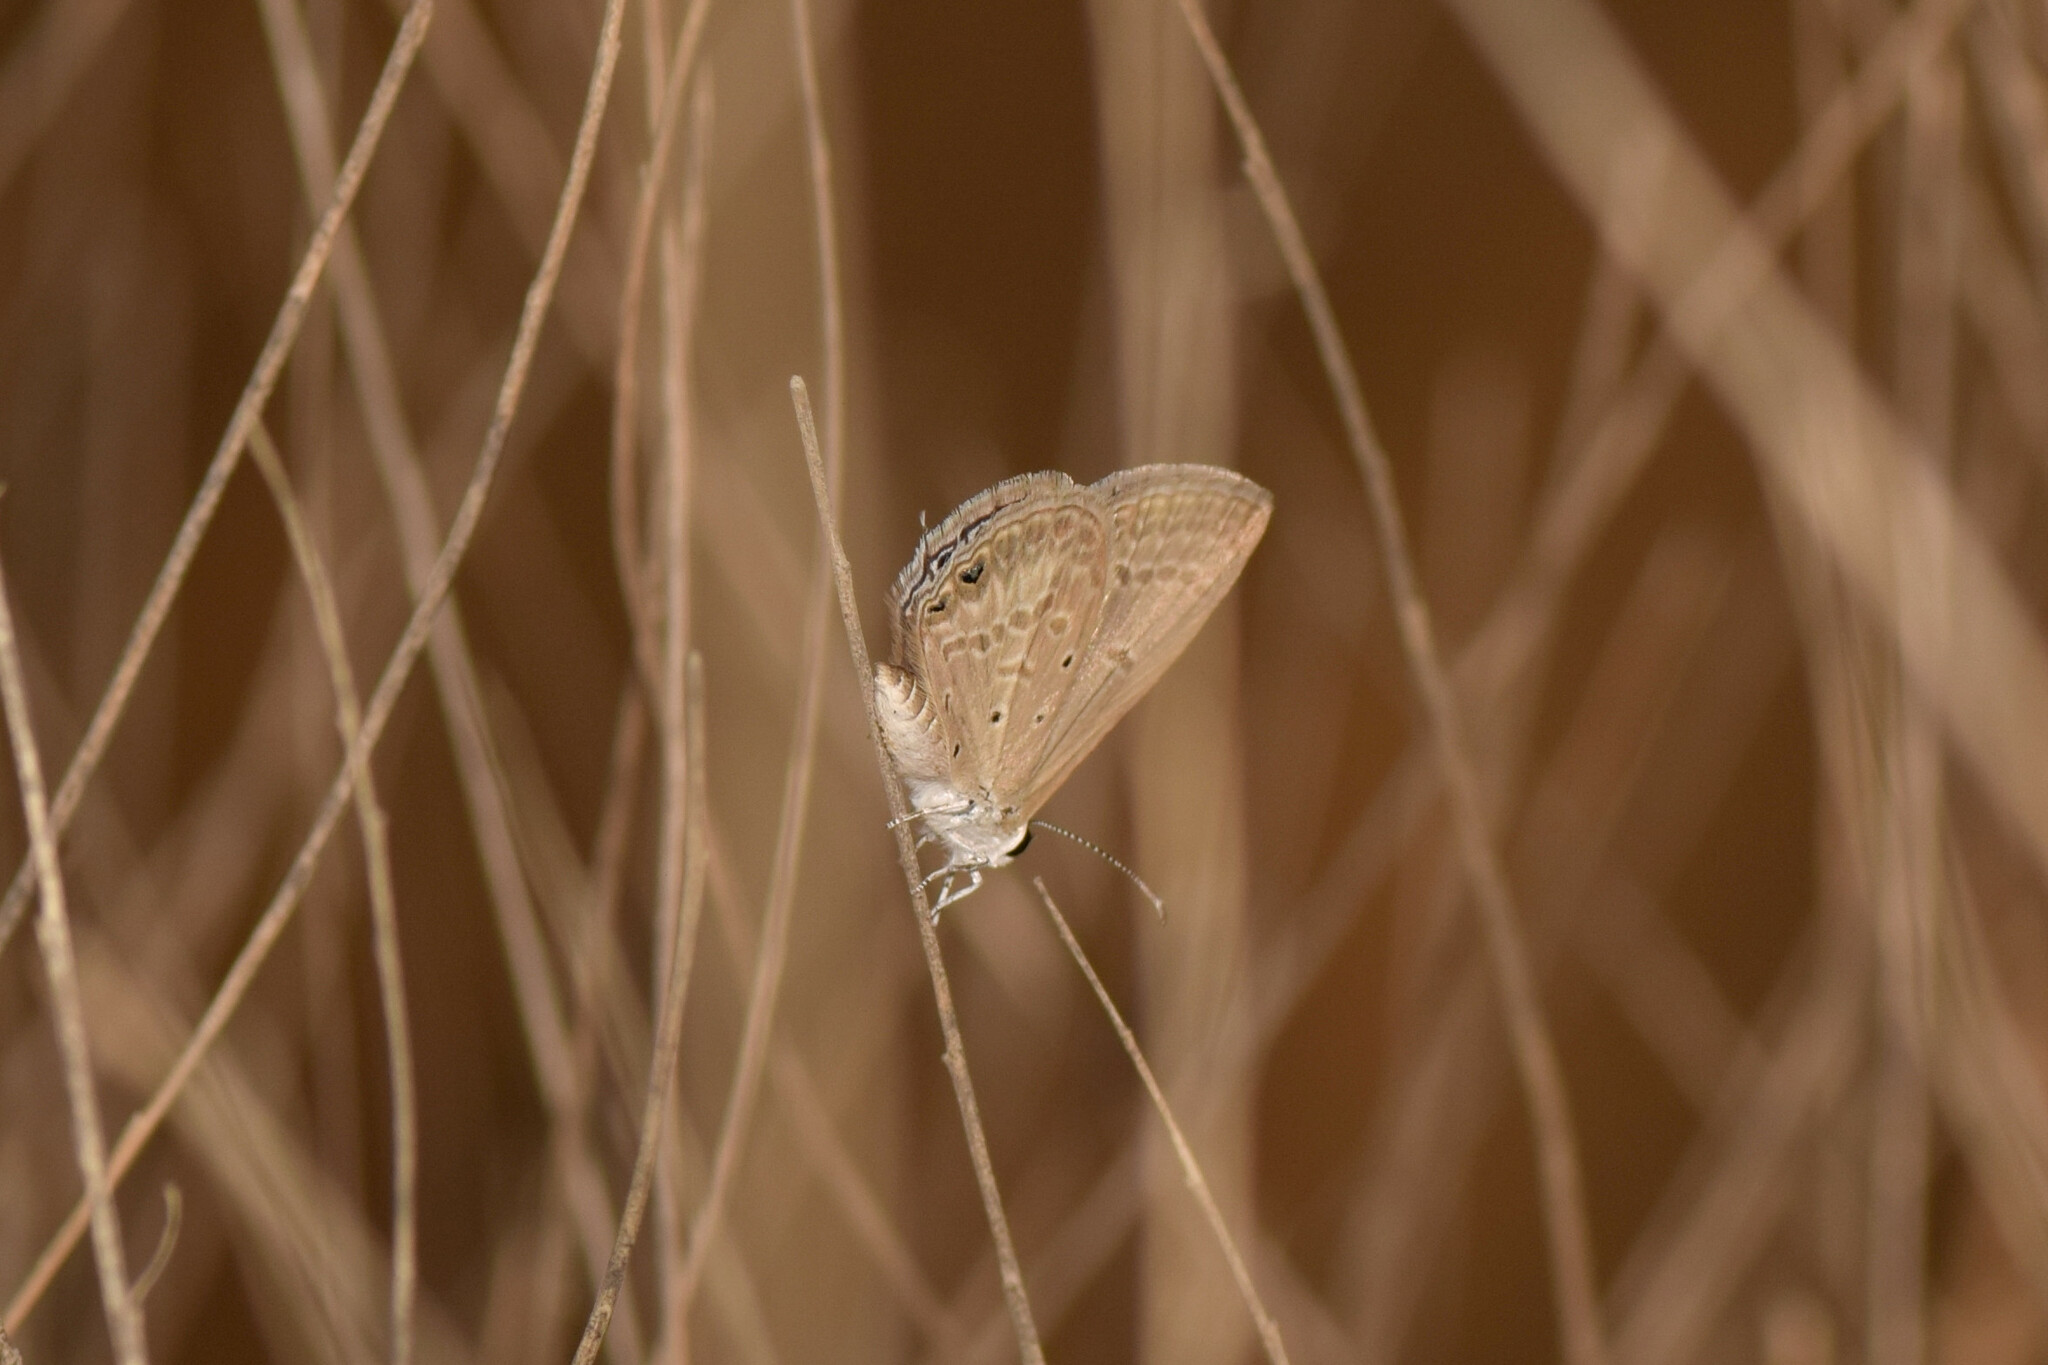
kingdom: Animalia
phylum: Arthropoda
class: Insecta
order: Lepidoptera
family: Lycaenidae
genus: Euchrysops
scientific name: Euchrysops cnejus
